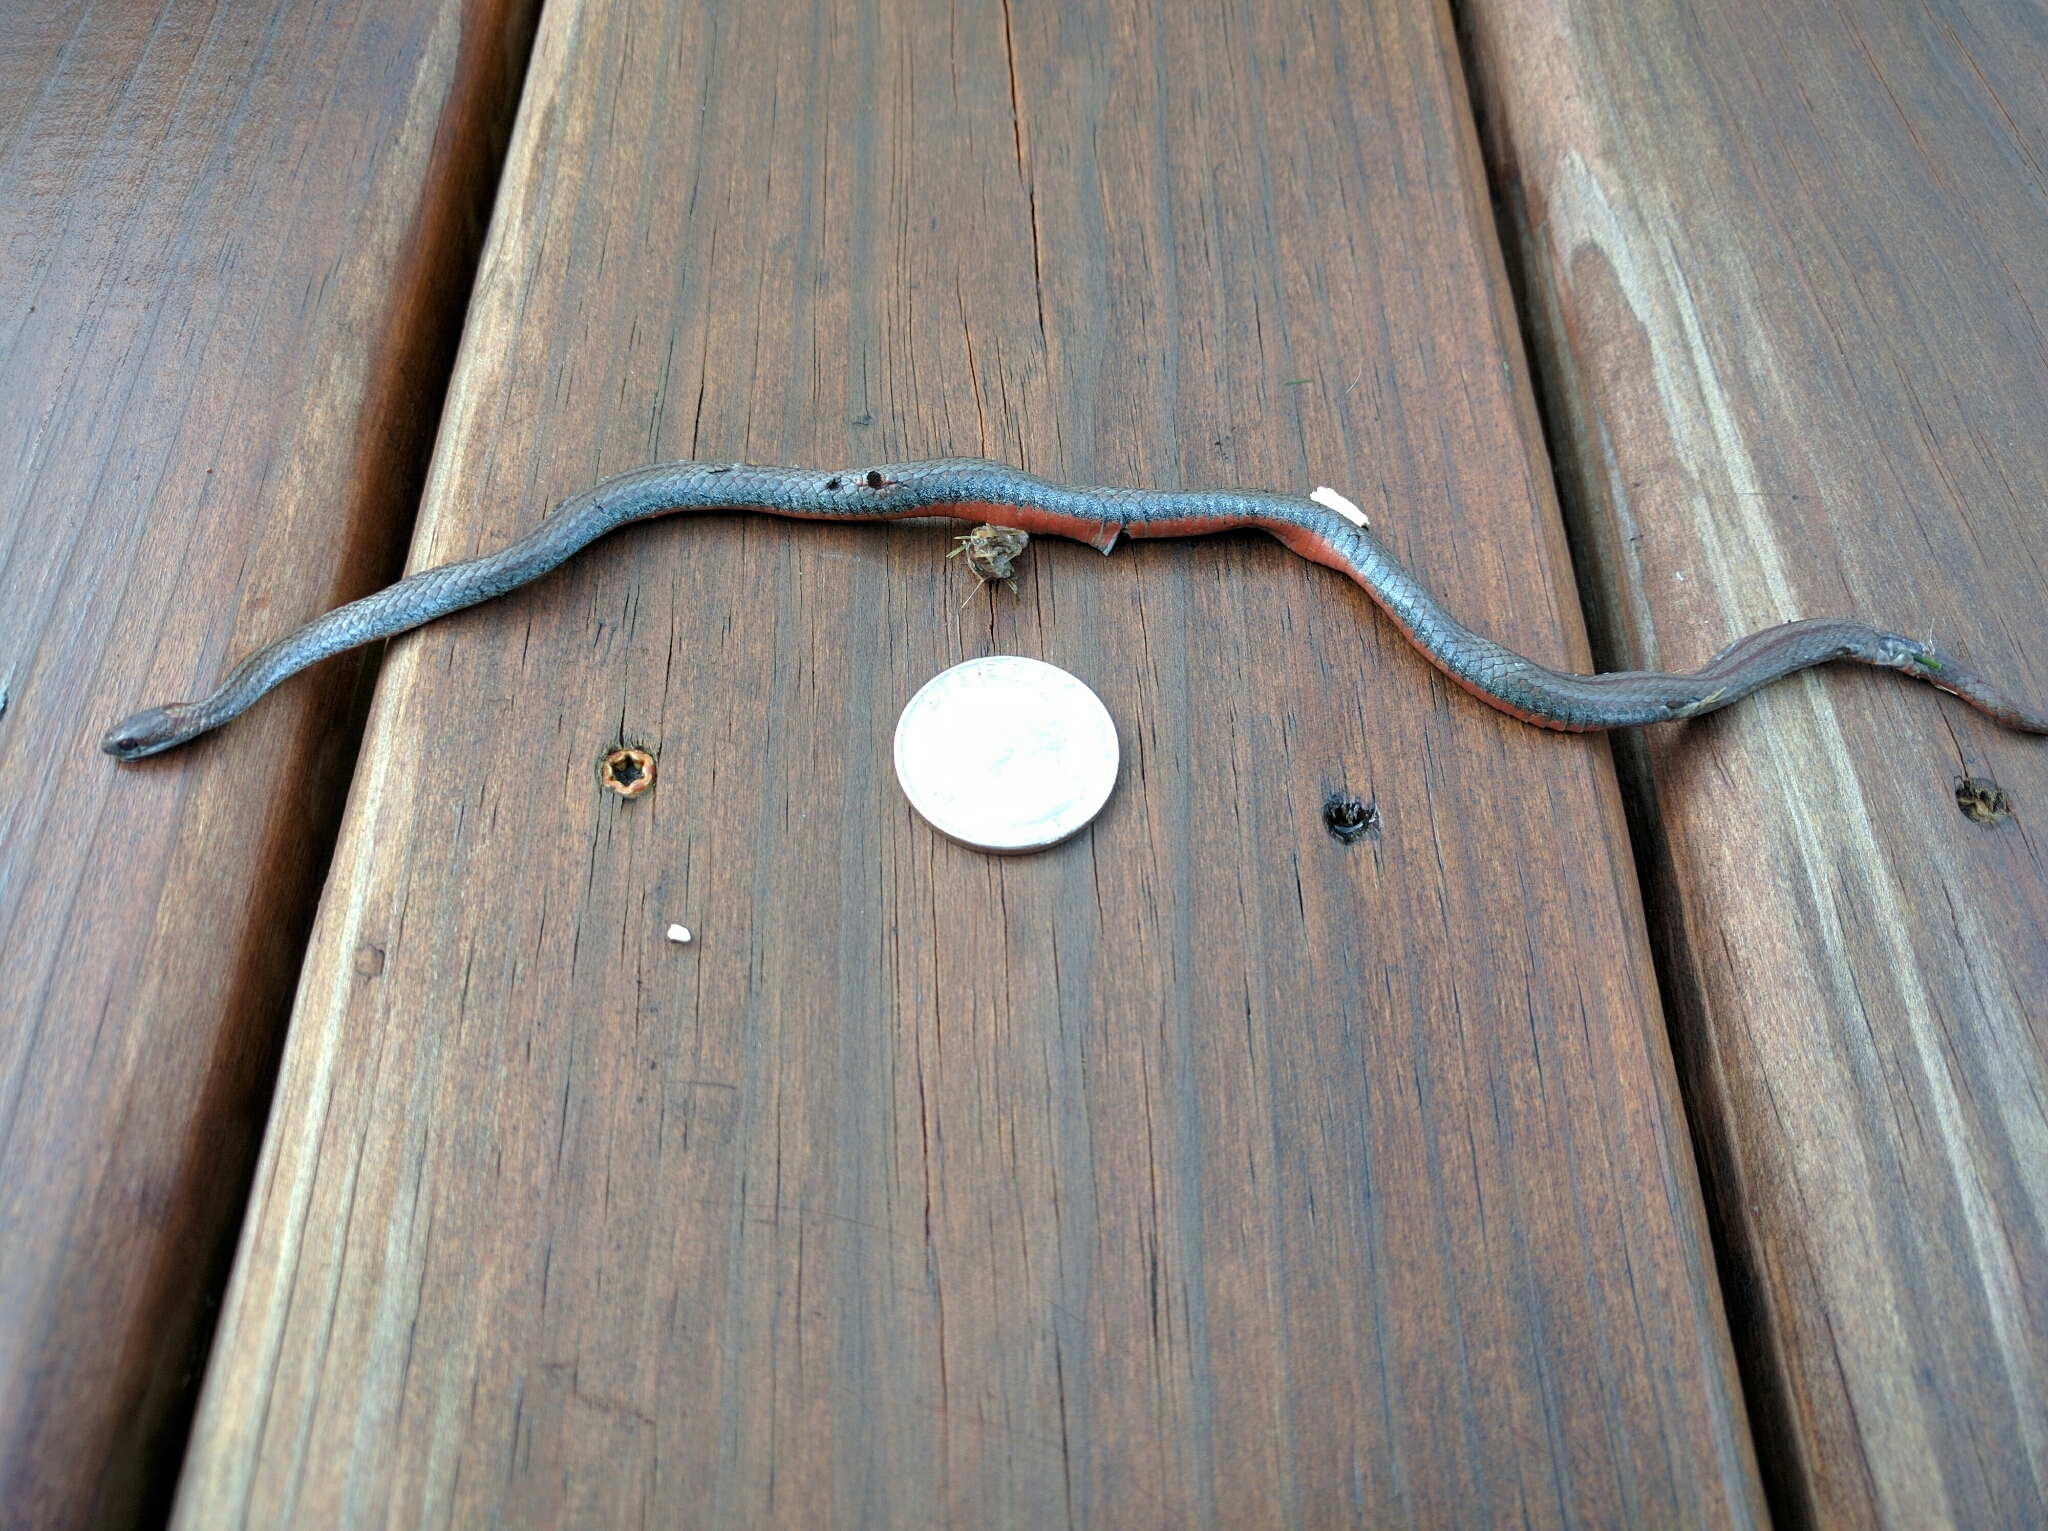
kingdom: Animalia
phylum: Chordata
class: Squamata
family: Colubridae
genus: Storeria
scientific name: Storeria occipitomaculata
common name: Redbelly snake
